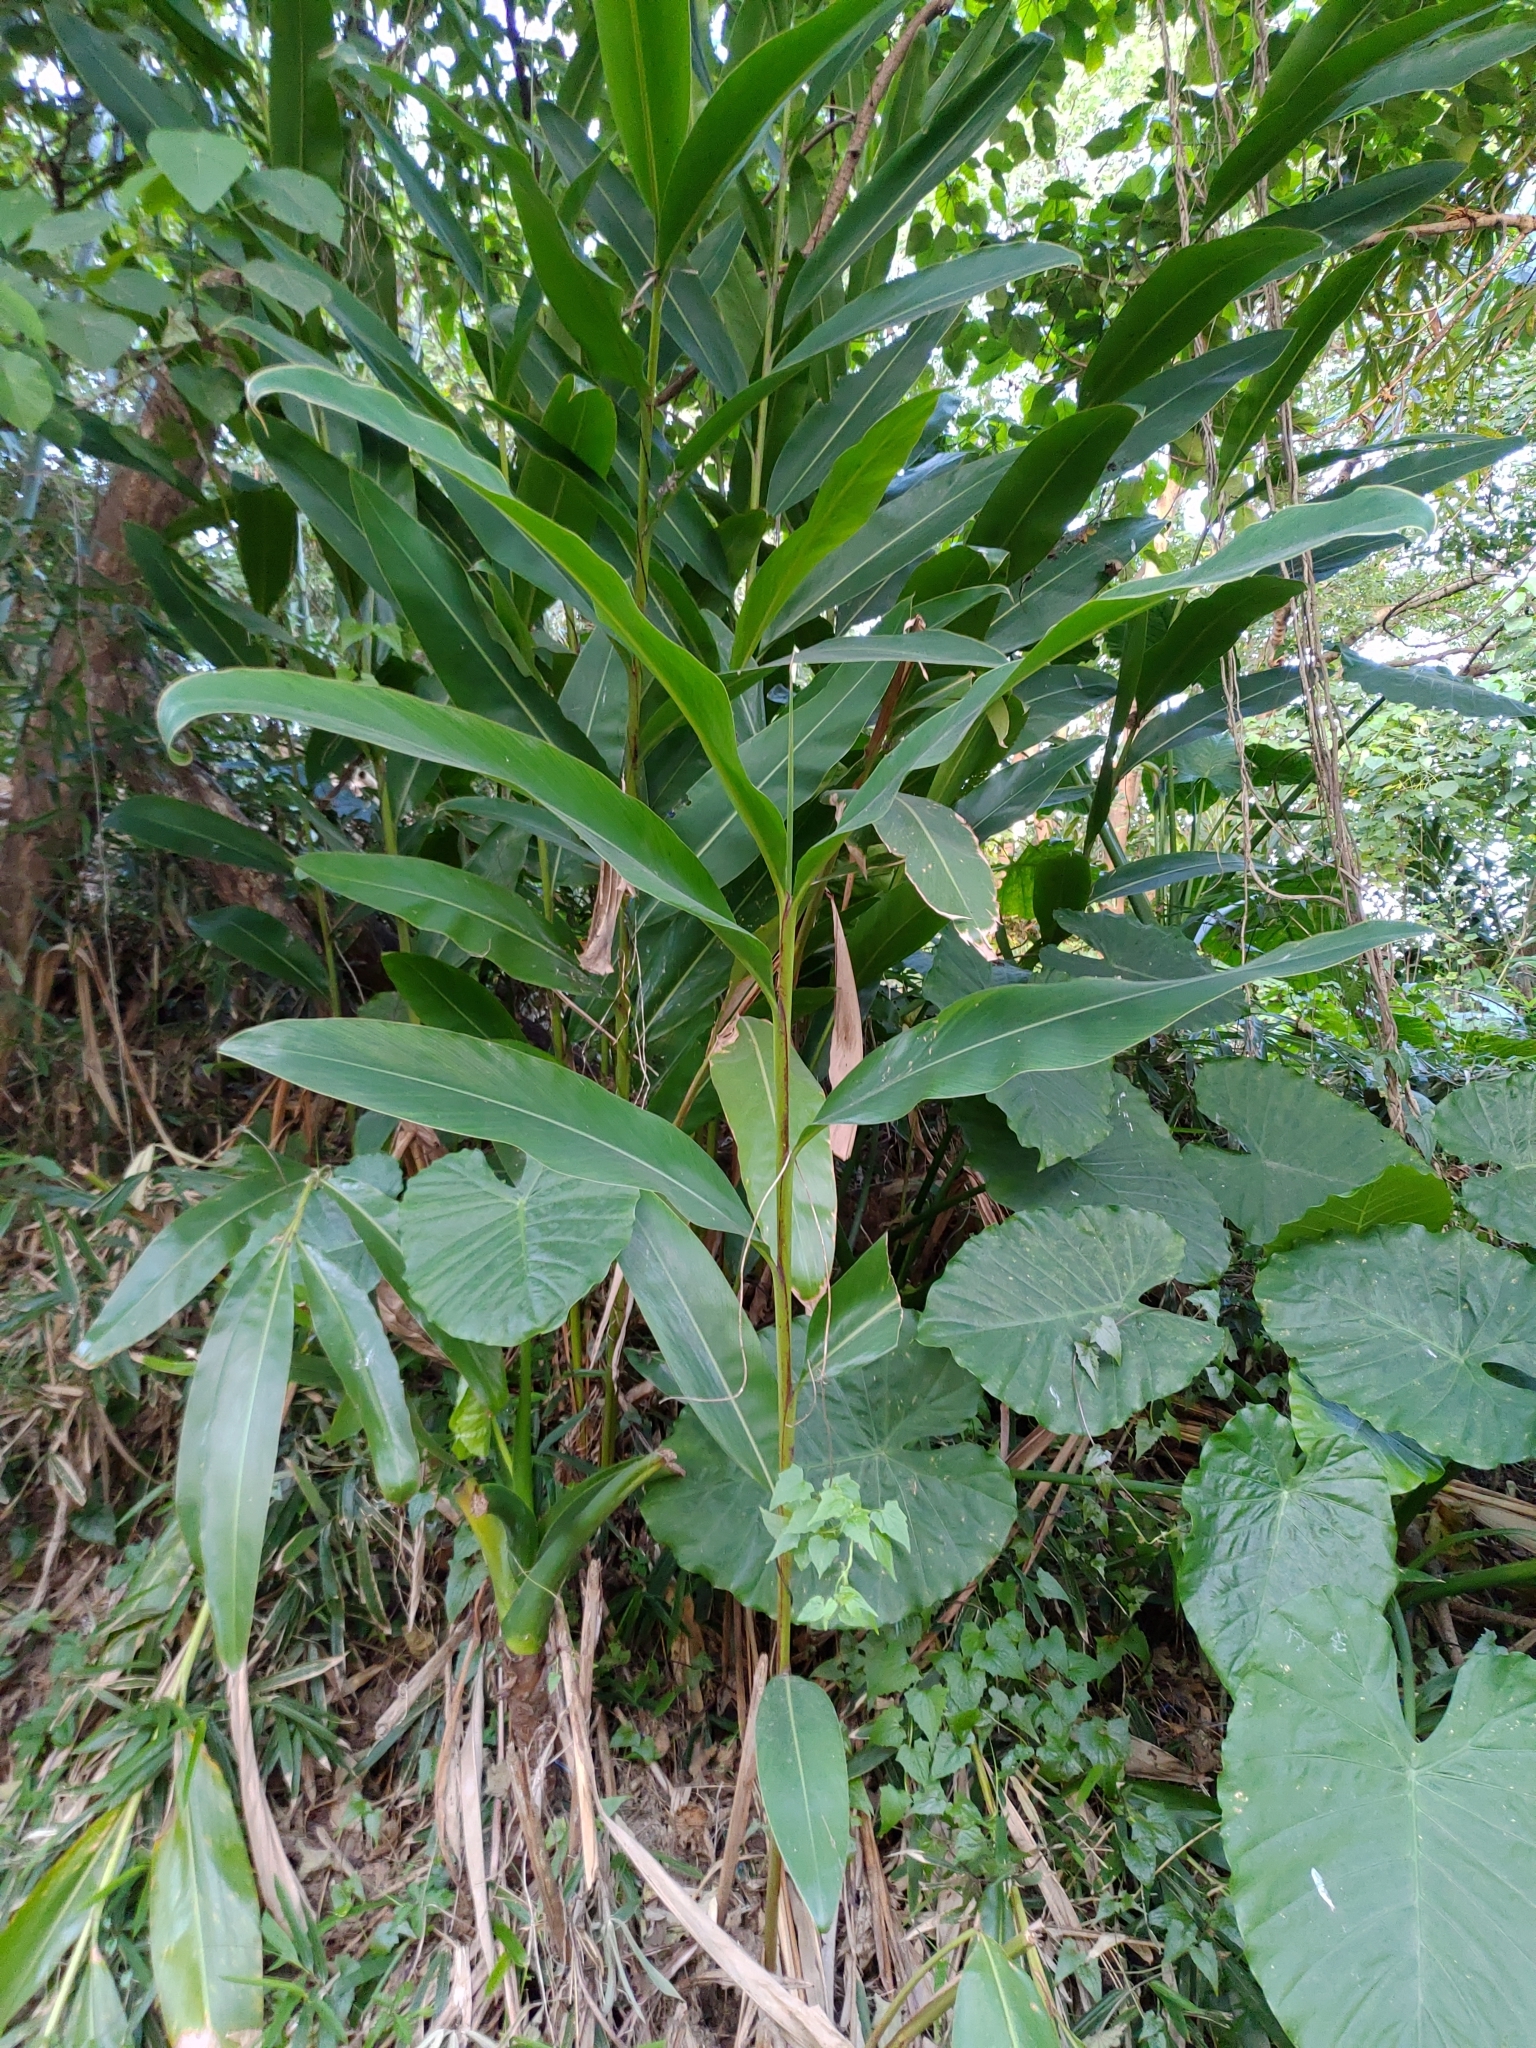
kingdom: Plantae
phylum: Tracheophyta
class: Liliopsida
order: Zingiberales
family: Zingiberaceae
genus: Alpinia
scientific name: Alpinia zerumbet
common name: Shellplant
